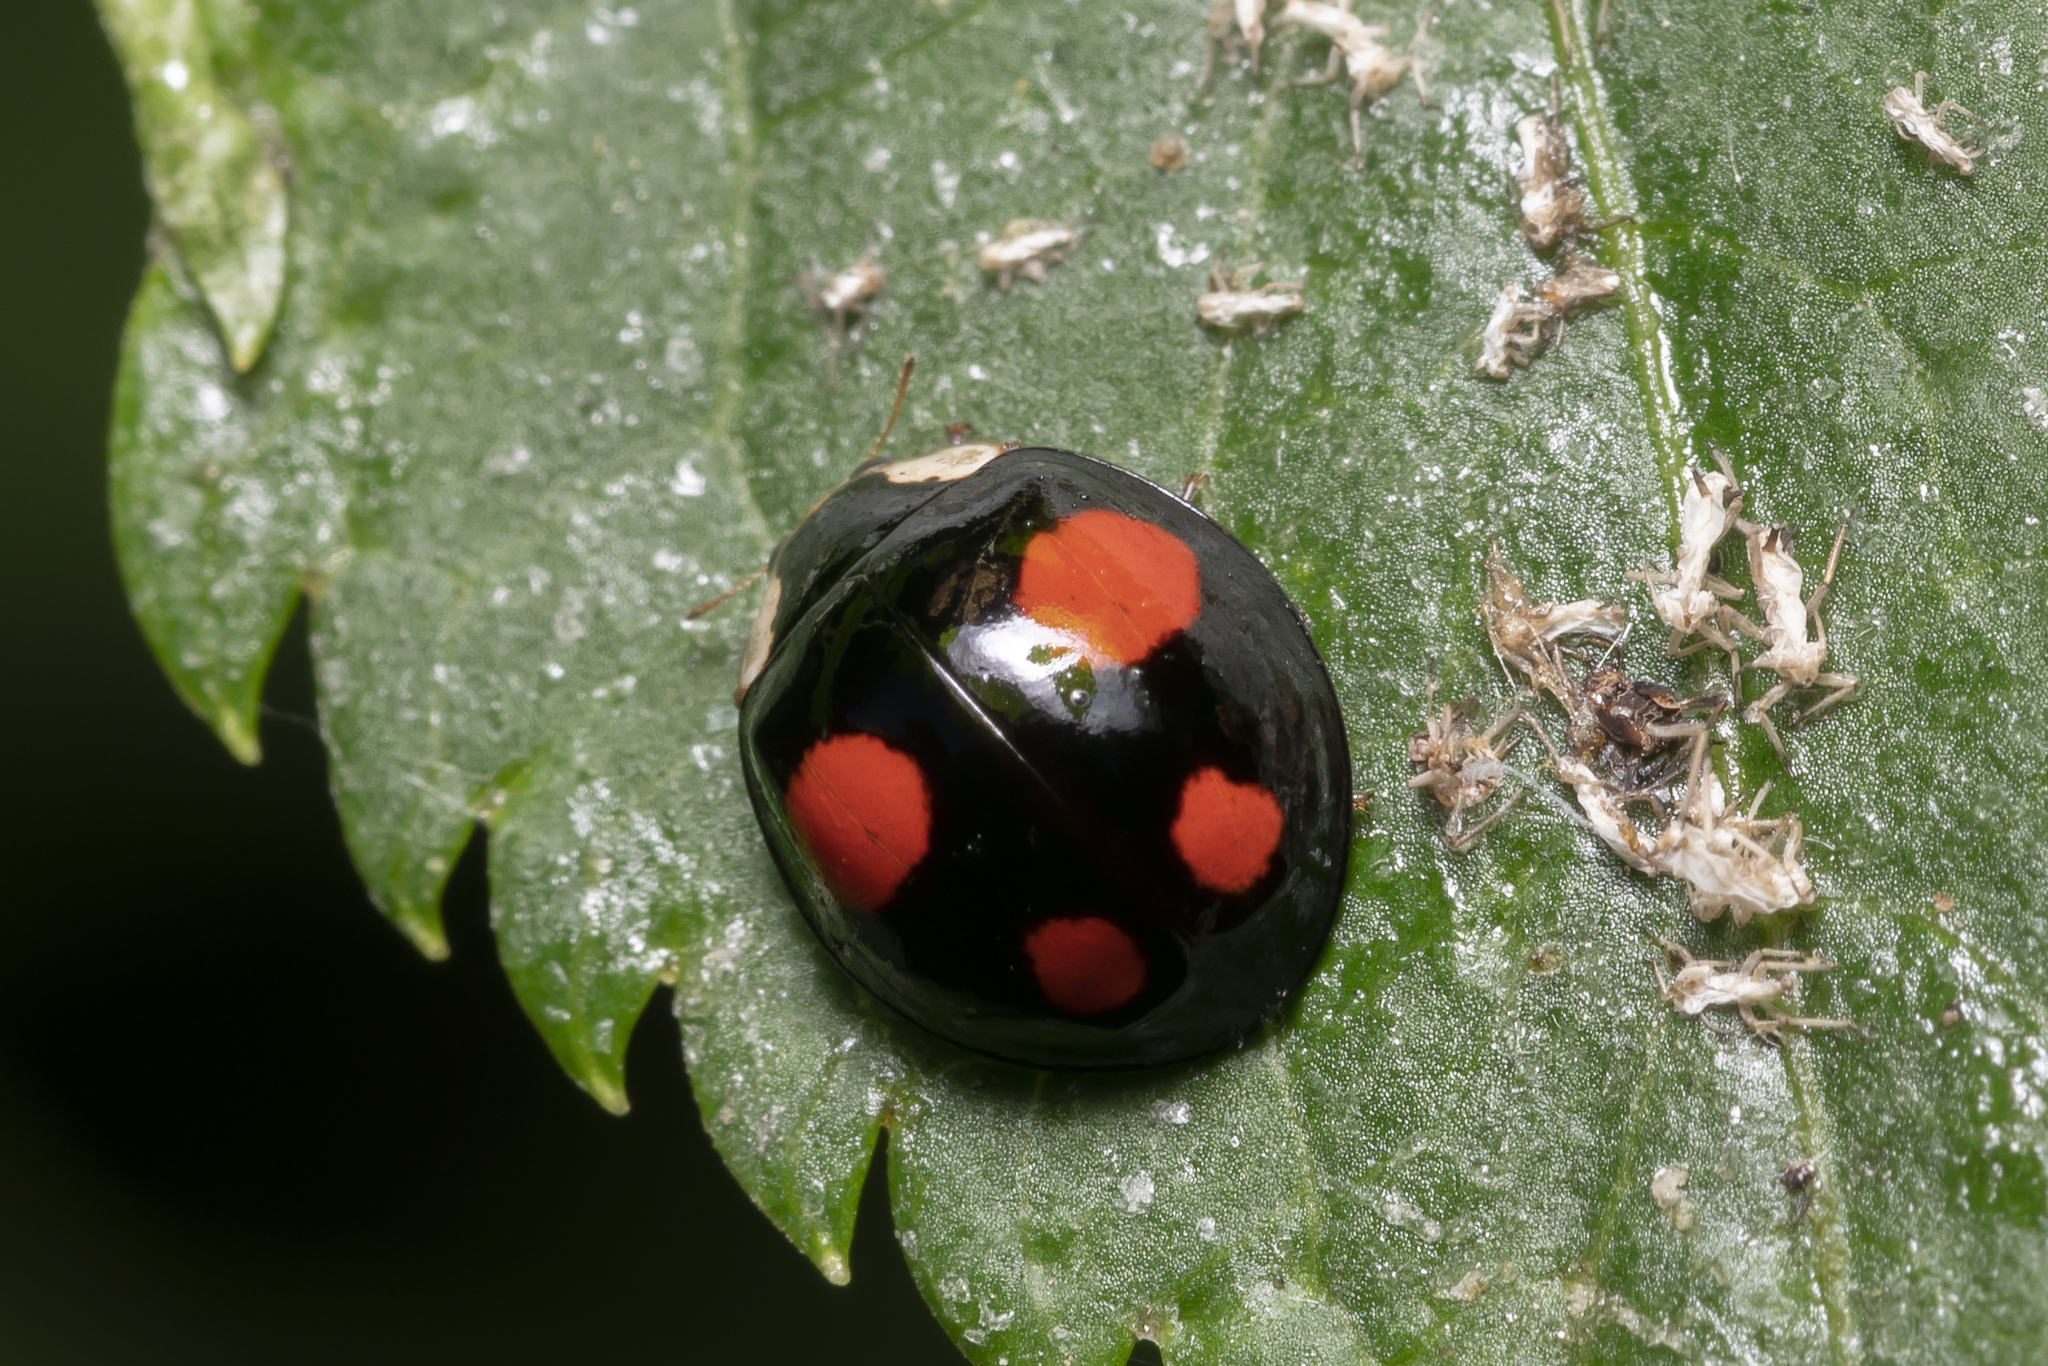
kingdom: Animalia
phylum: Arthropoda
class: Insecta
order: Coleoptera
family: Coccinellidae
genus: Harmonia
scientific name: Harmonia axyridis
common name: Harlequin ladybird
